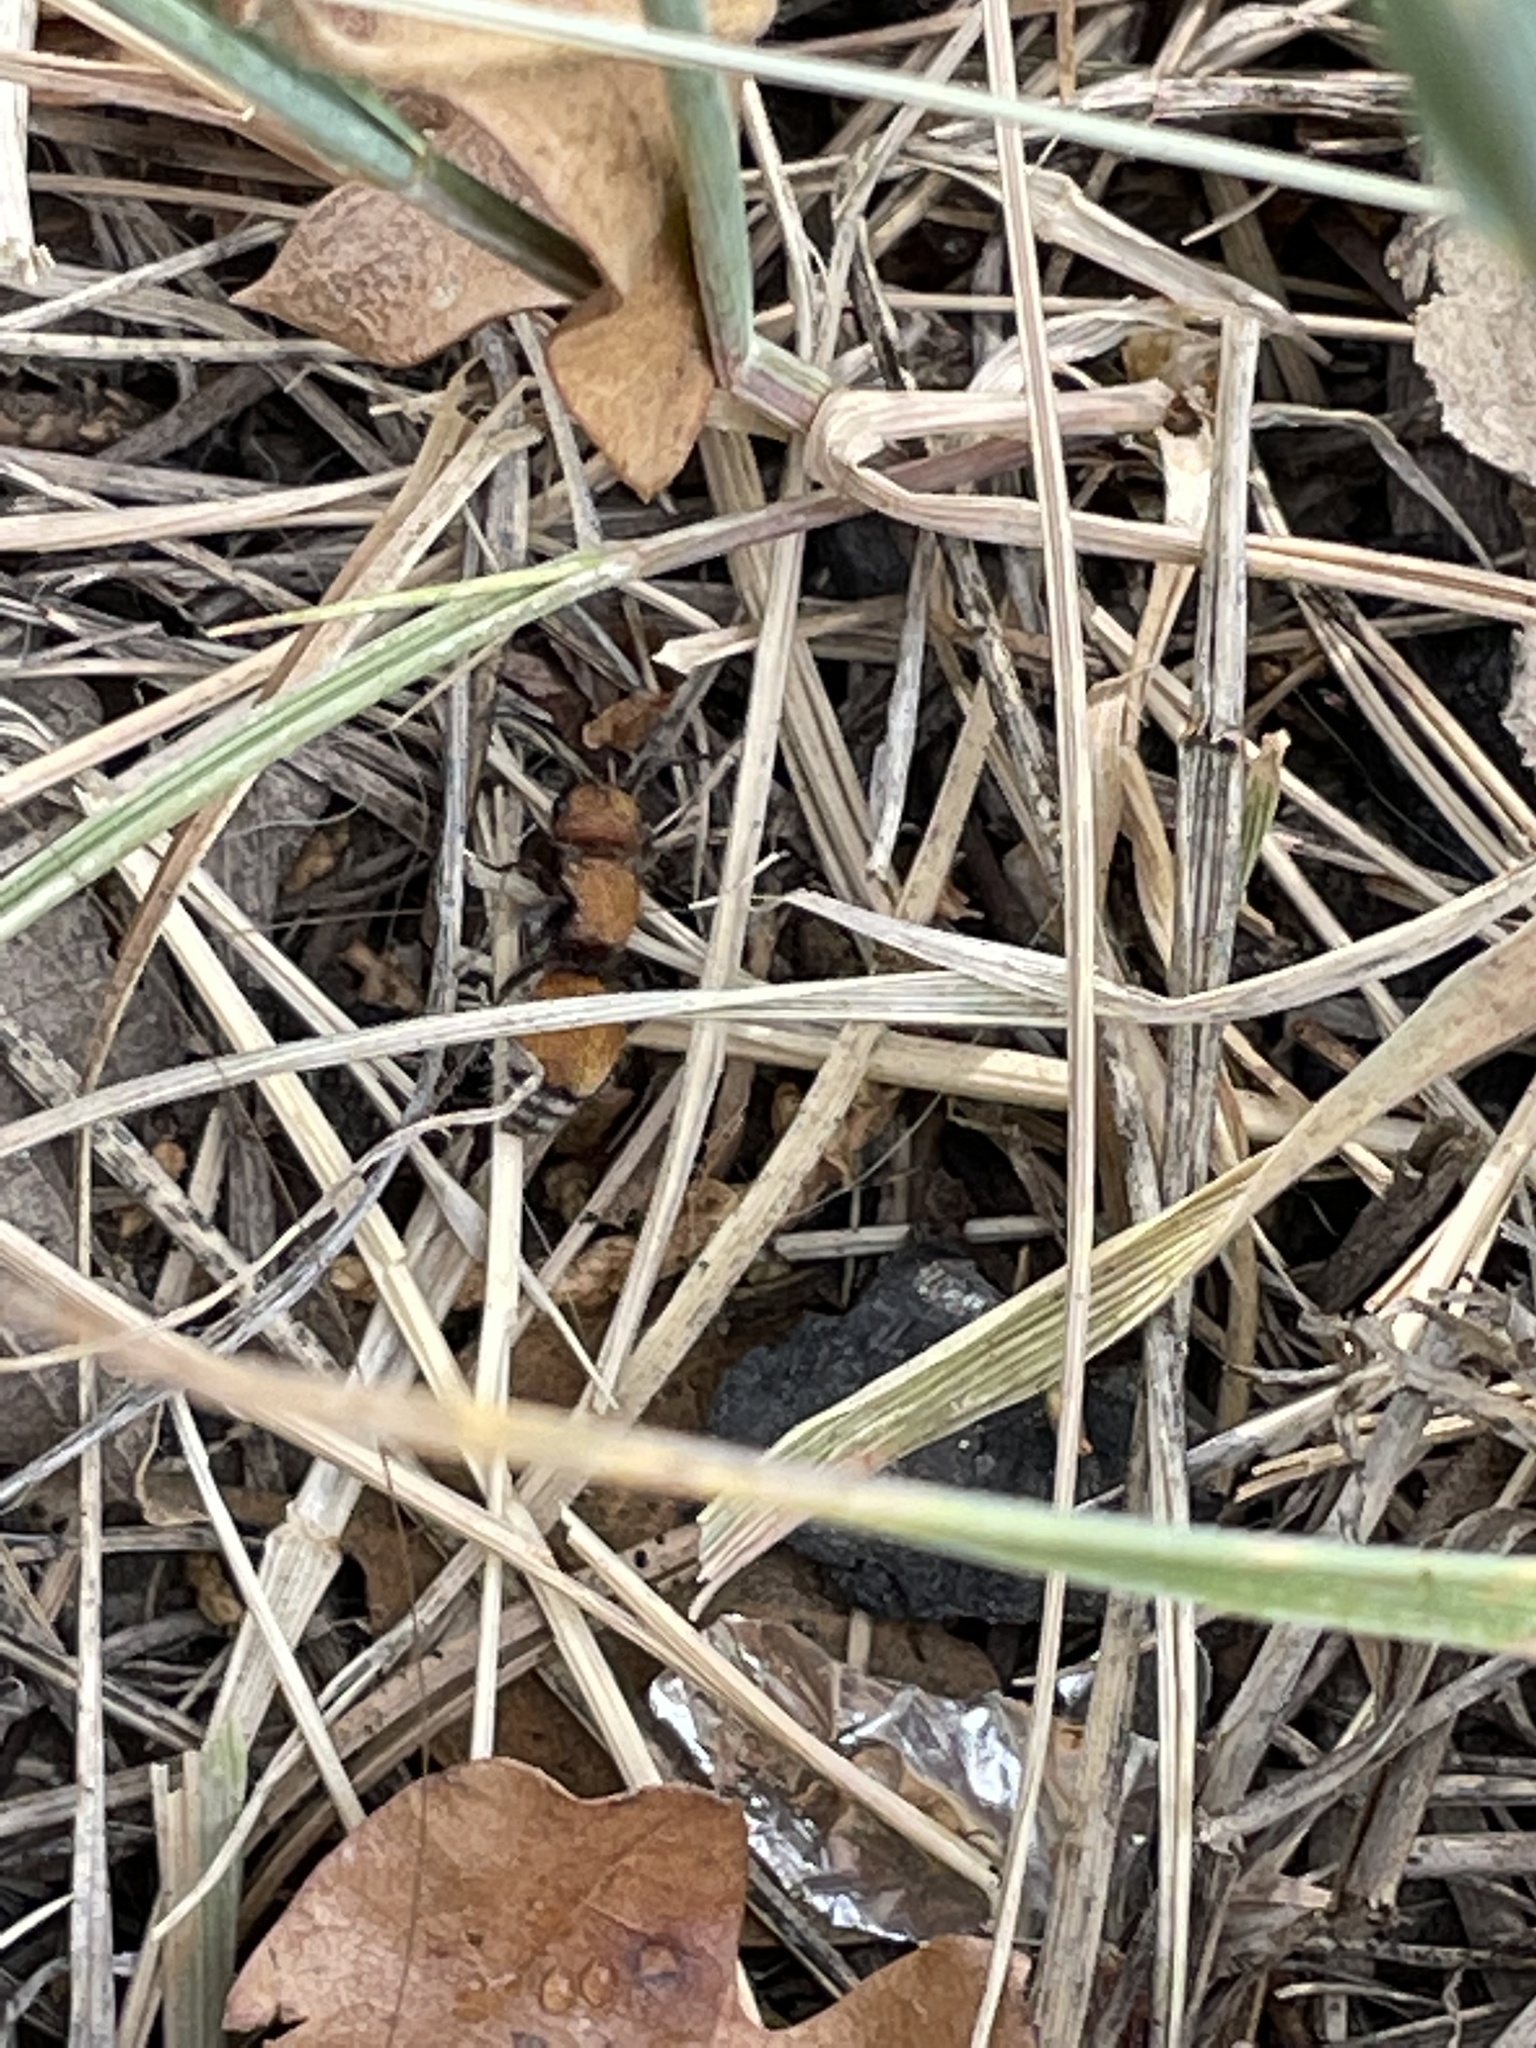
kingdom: Animalia
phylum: Arthropoda
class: Insecta
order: Hymenoptera
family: Mutillidae
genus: Pseudomethoca
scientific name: Pseudomethoca
